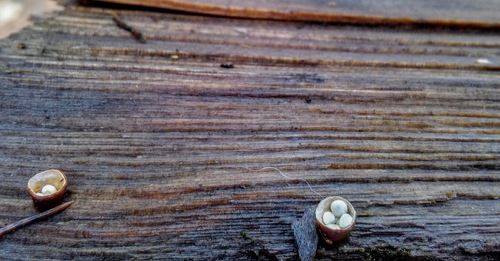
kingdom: Fungi
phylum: Basidiomycota
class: Agaricomycetes
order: Agaricales
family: Nidulariaceae
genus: Crucibulum
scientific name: Crucibulum laeve
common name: Common bird's nest
